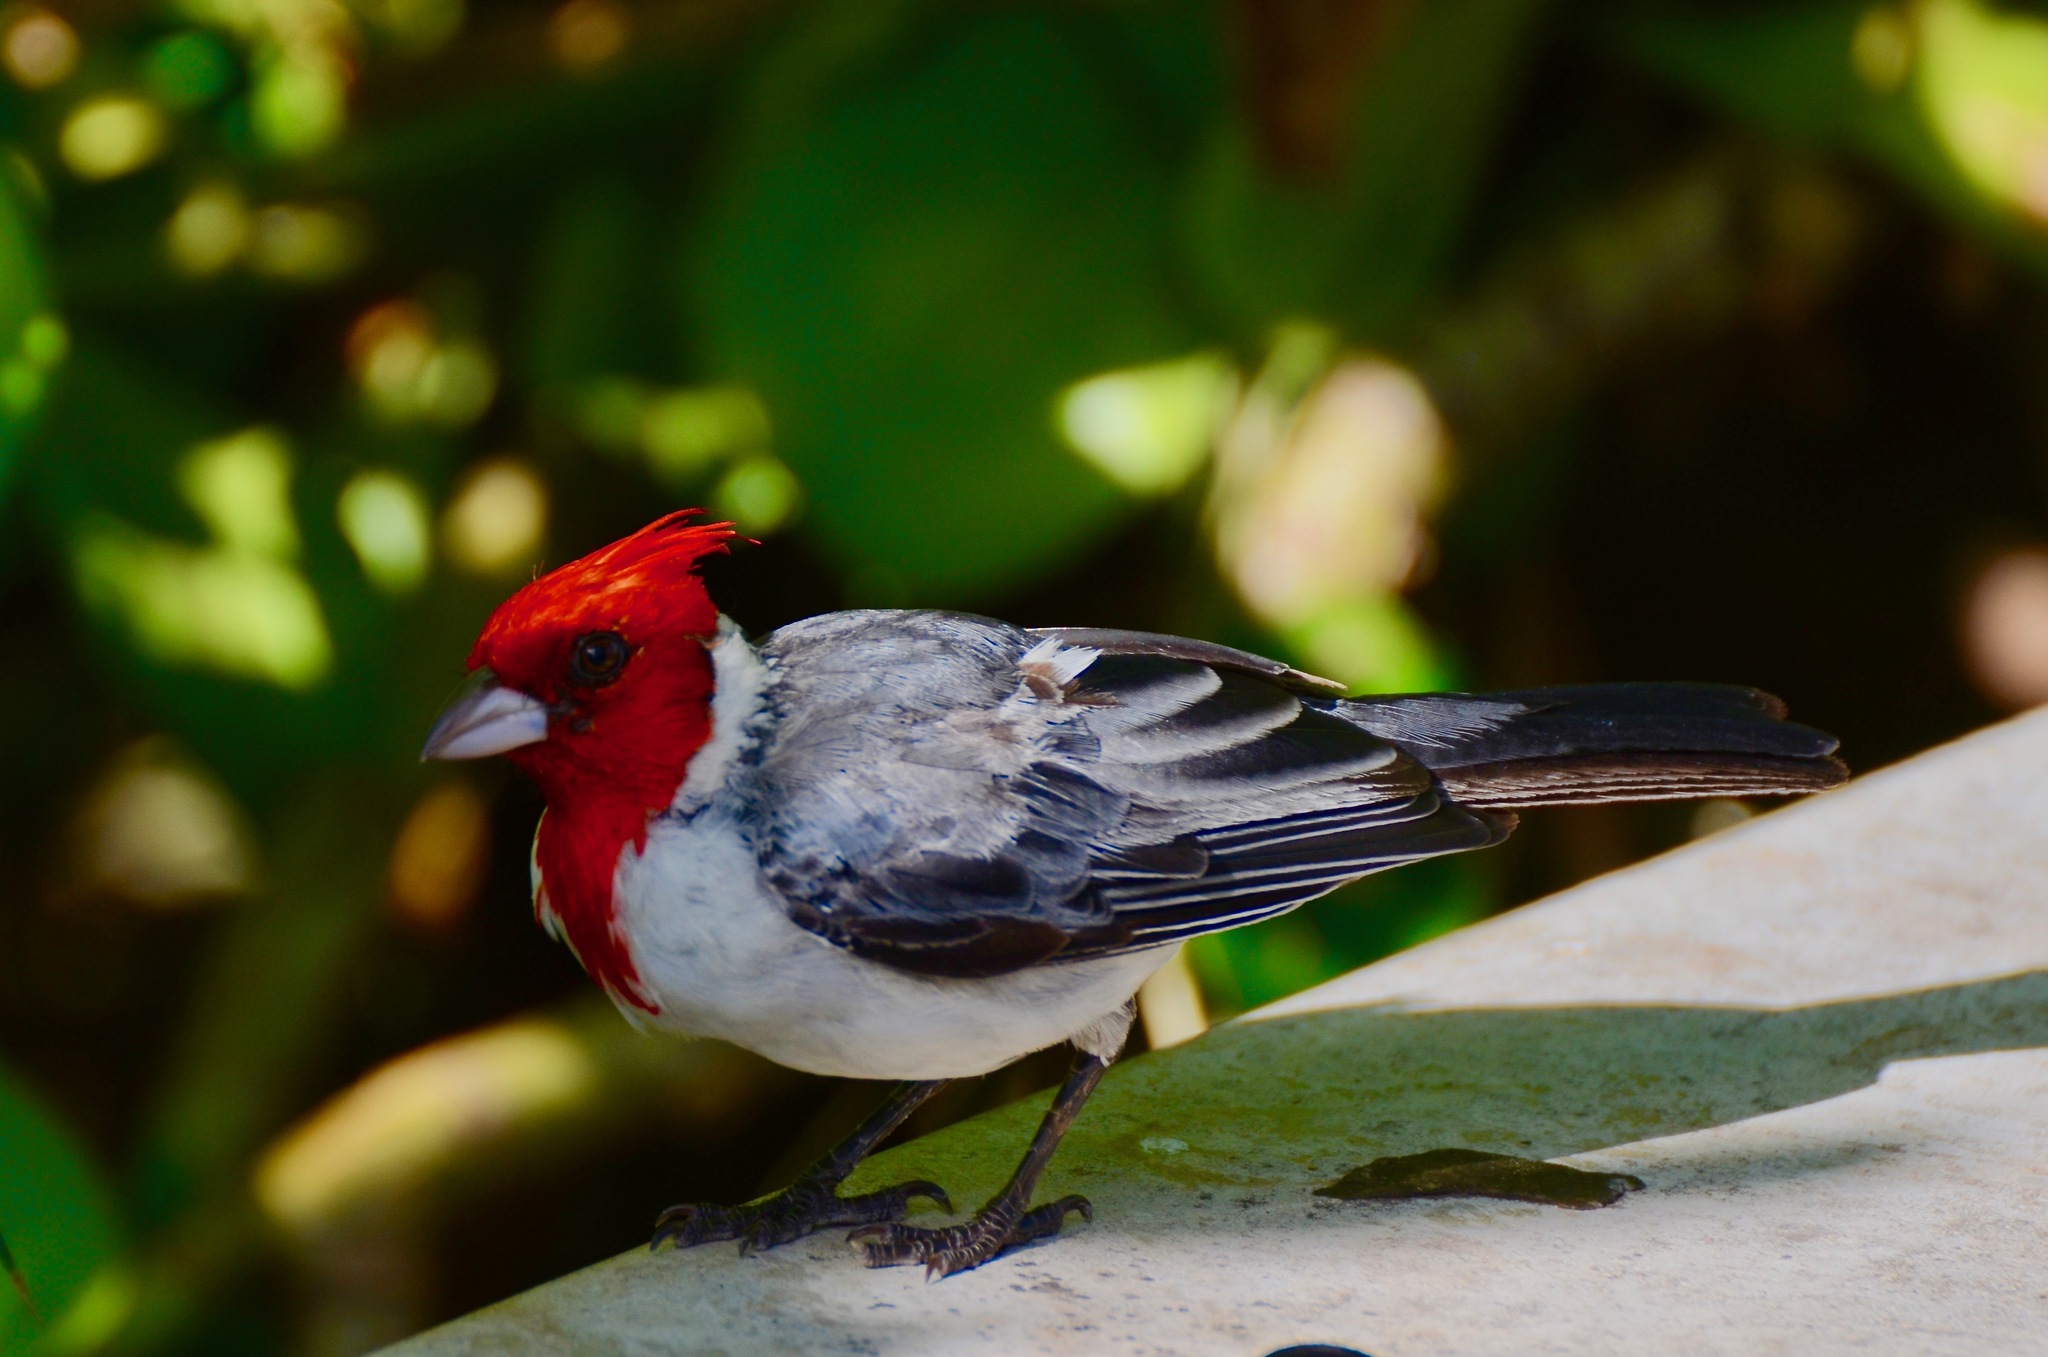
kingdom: Animalia
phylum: Chordata
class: Aves
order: Passeriformes
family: Thraupidae
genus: Paroaria
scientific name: Paroaria coronata
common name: Red-crested cardinal
